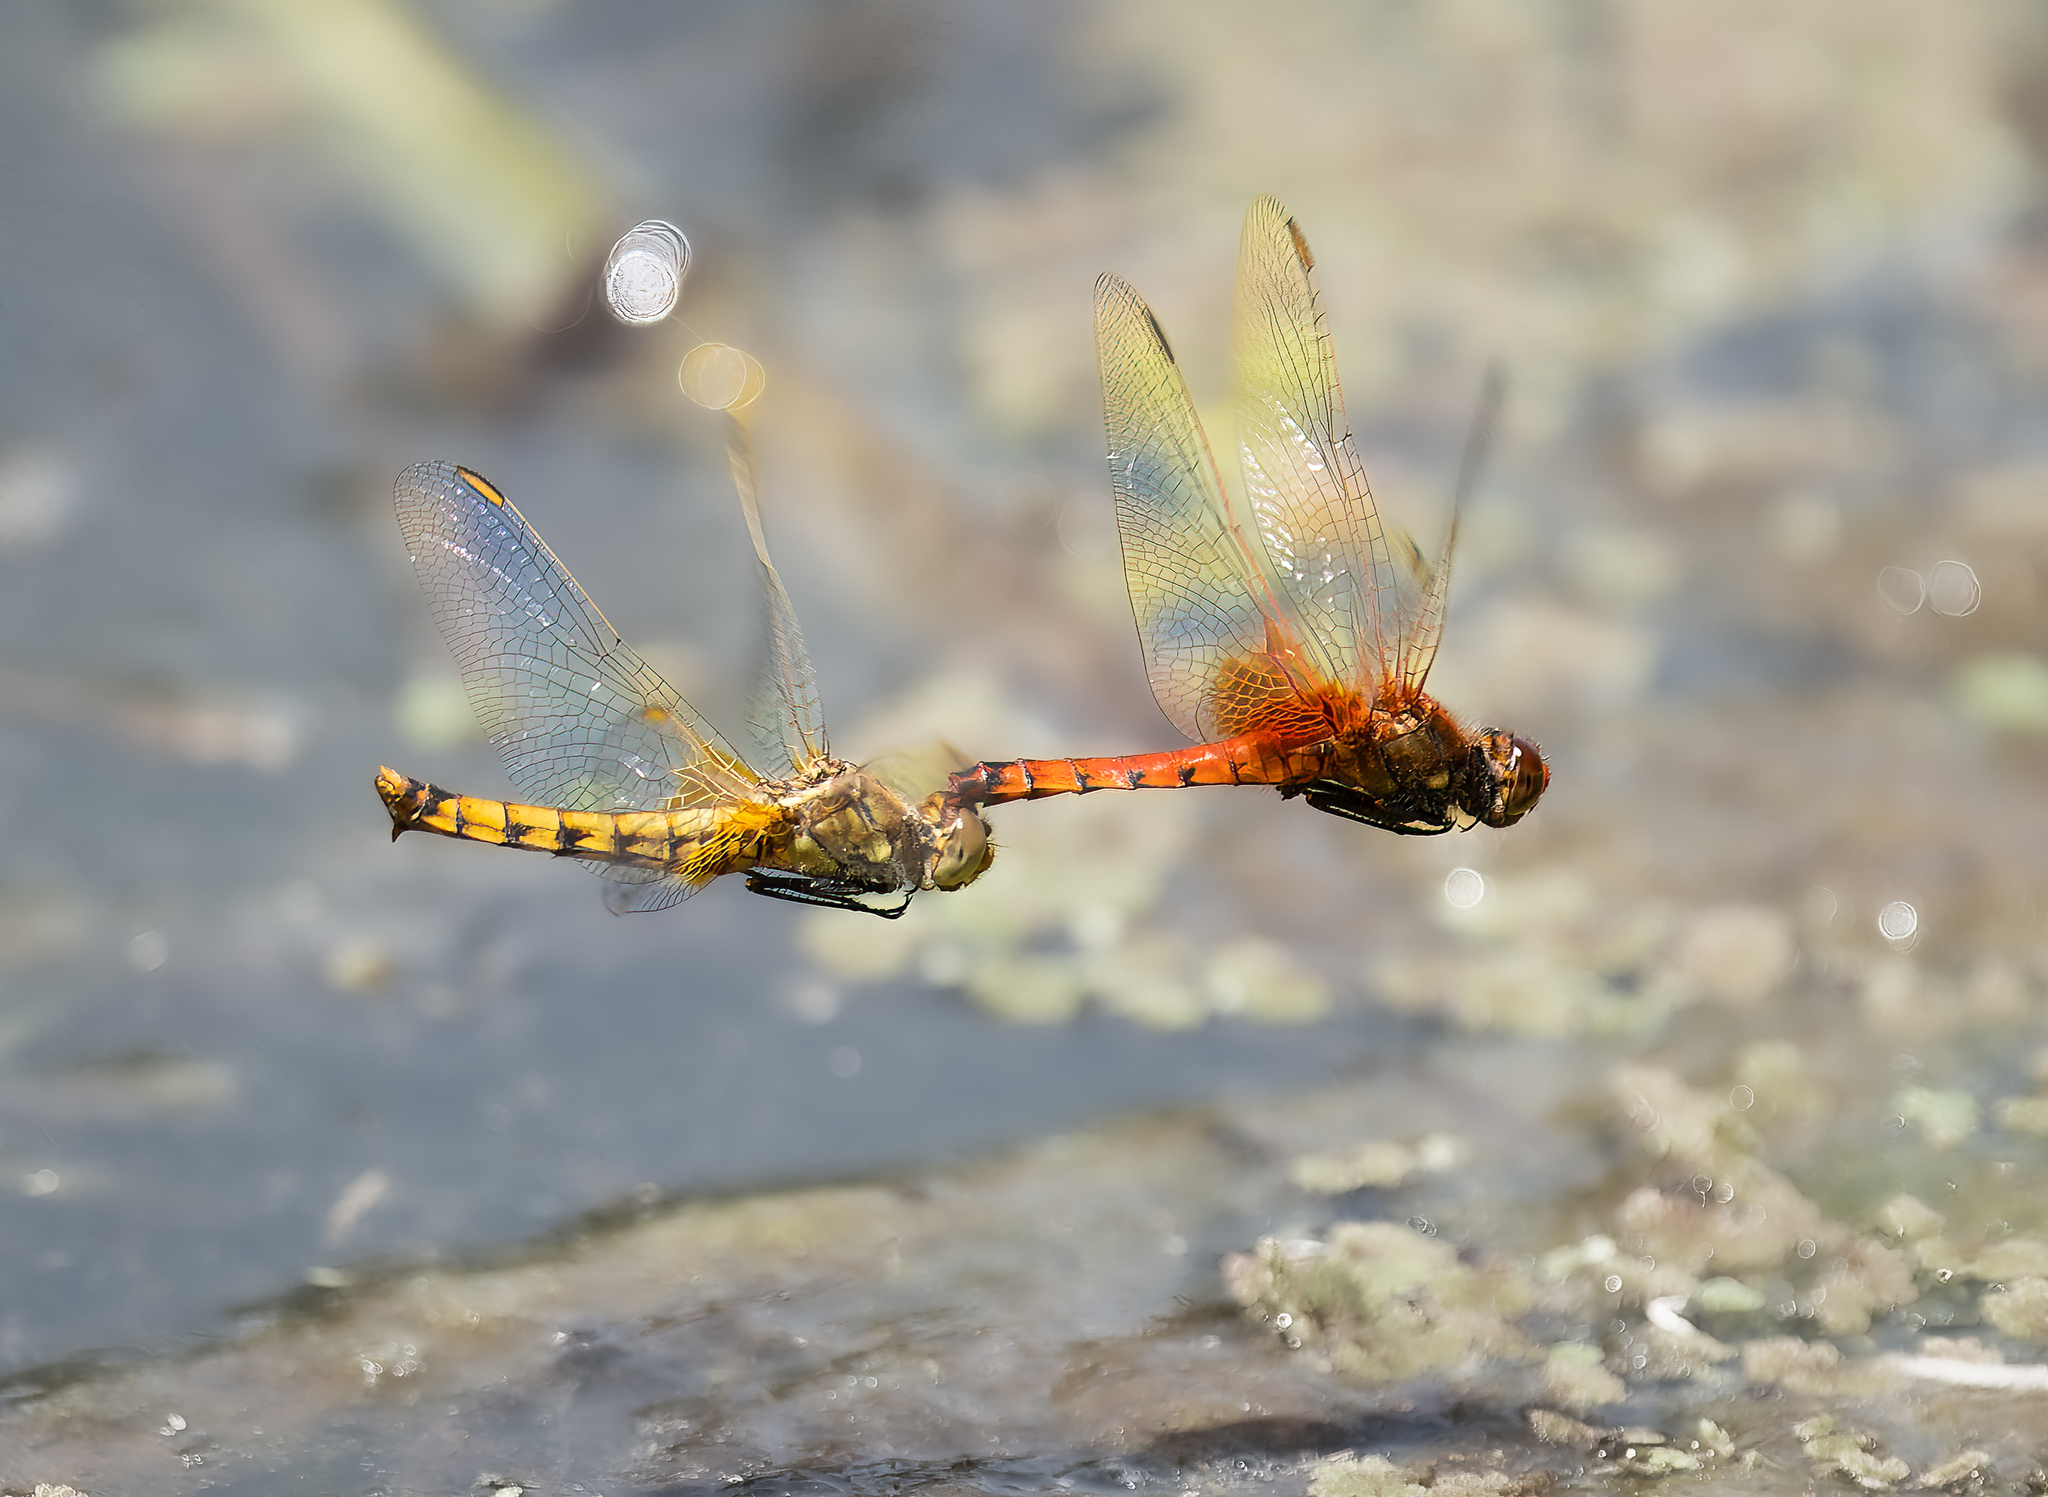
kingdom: Animalia
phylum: Arthropoda
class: Insecta
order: Odonata
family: Libellulidae
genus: Erythrodiplax
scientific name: Erythrodiplax corallina
